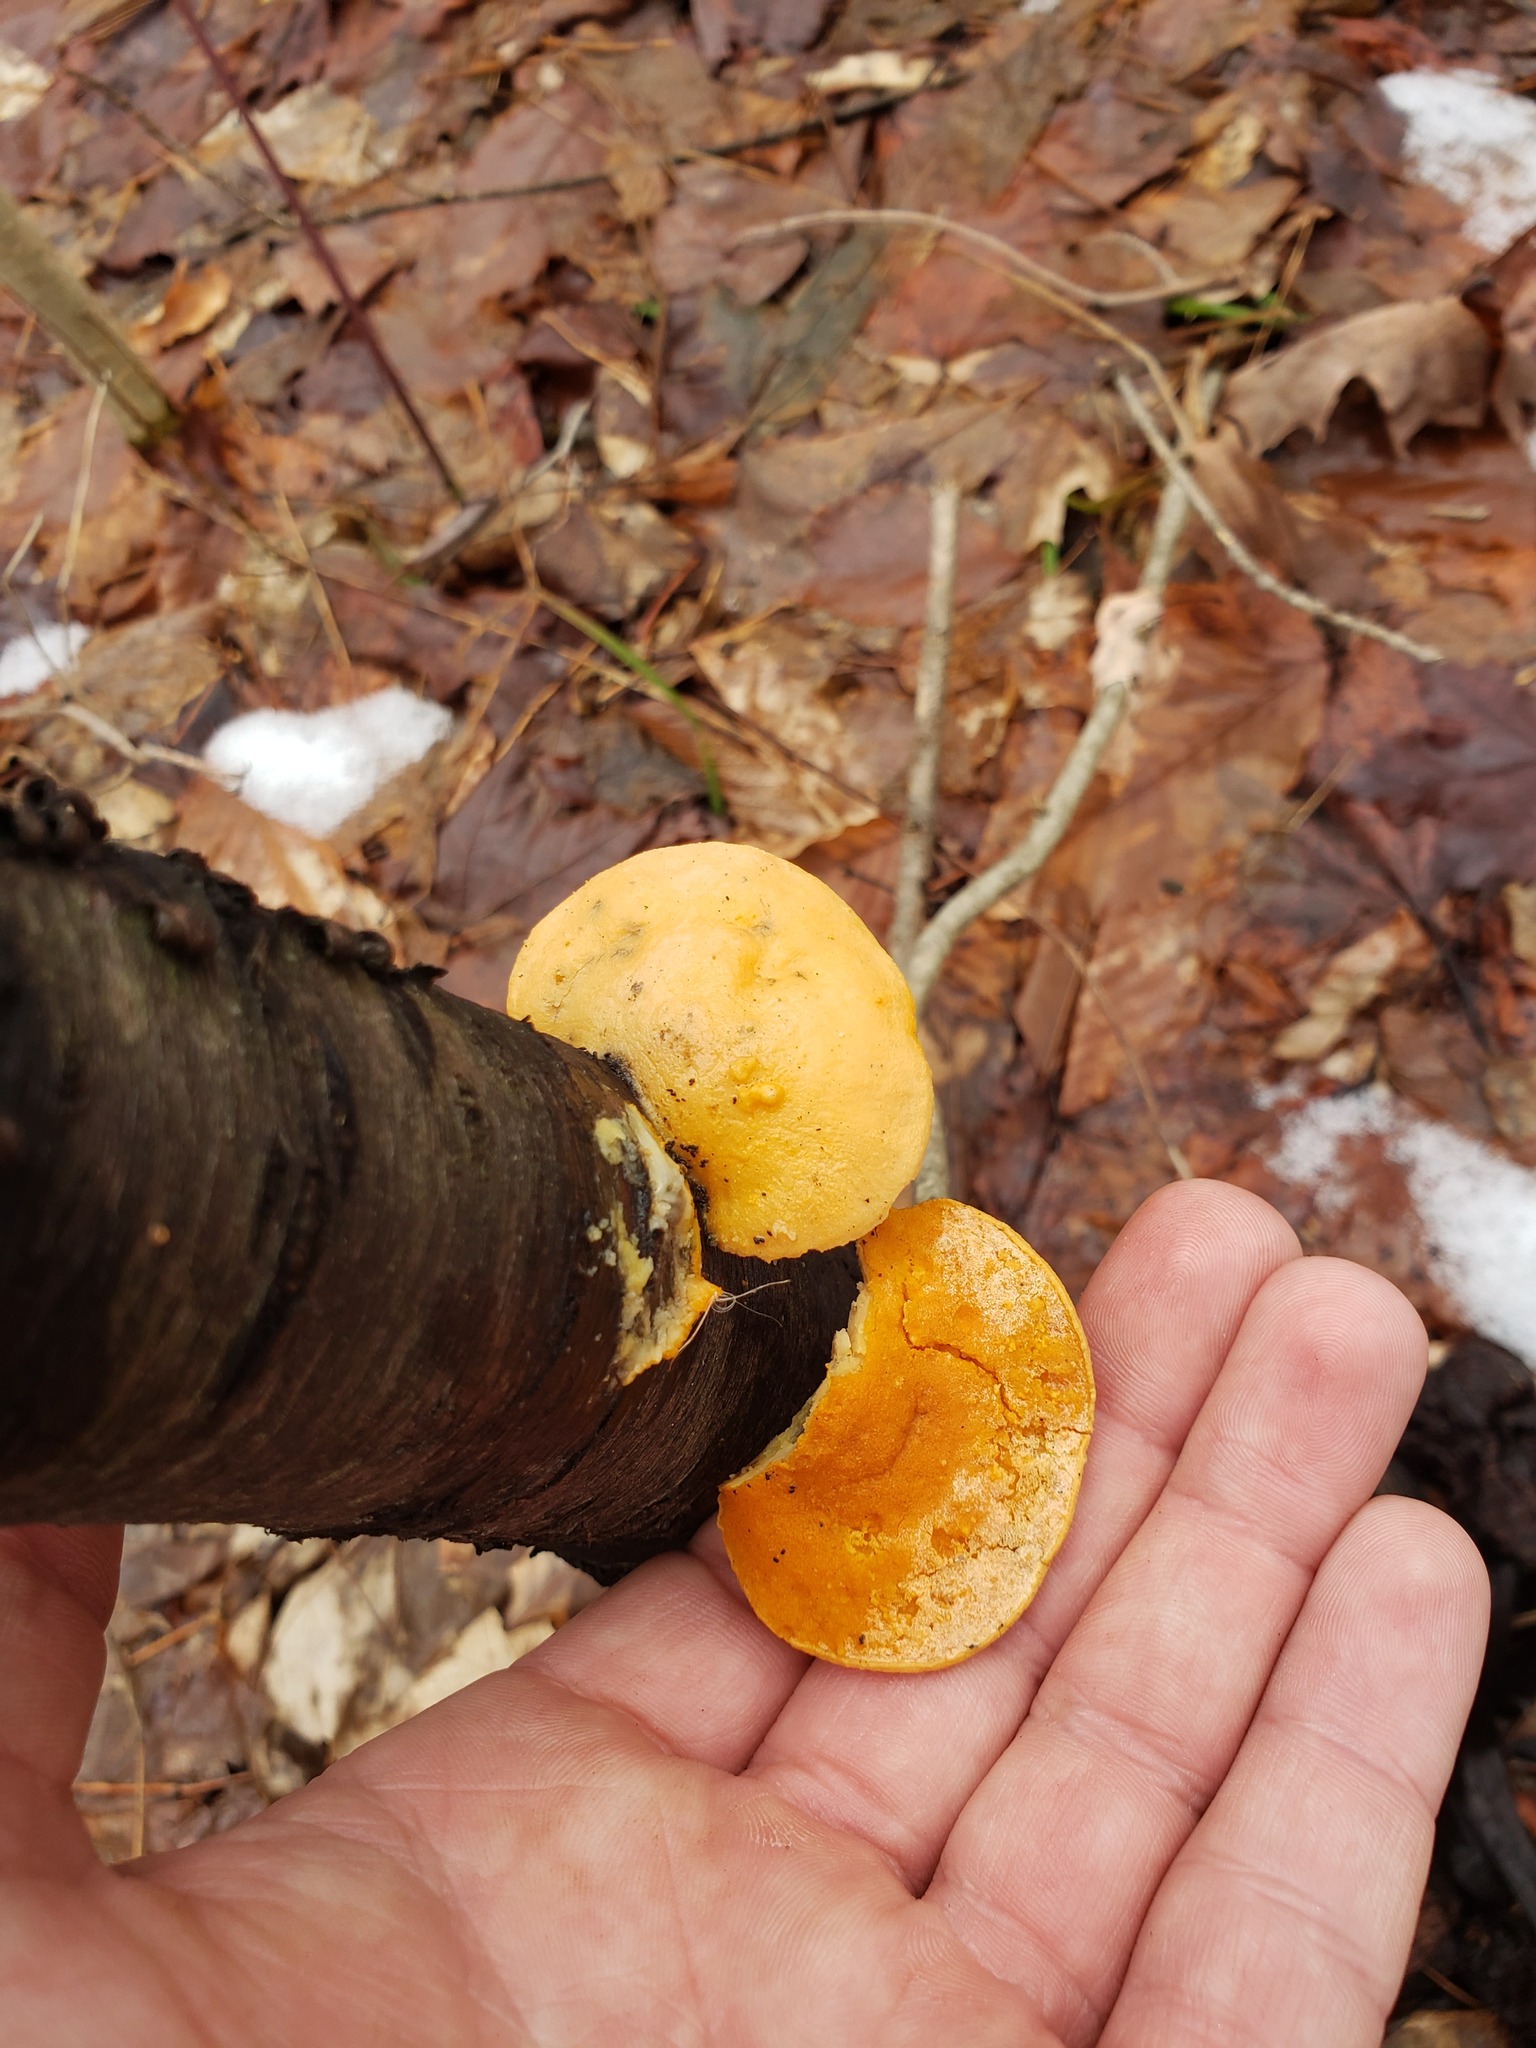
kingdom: Fungi
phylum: Ascomycota
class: Sordariomycetes
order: Hypocreales
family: Hypocreaceae
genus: Protocrea
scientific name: Protocrea pallida
